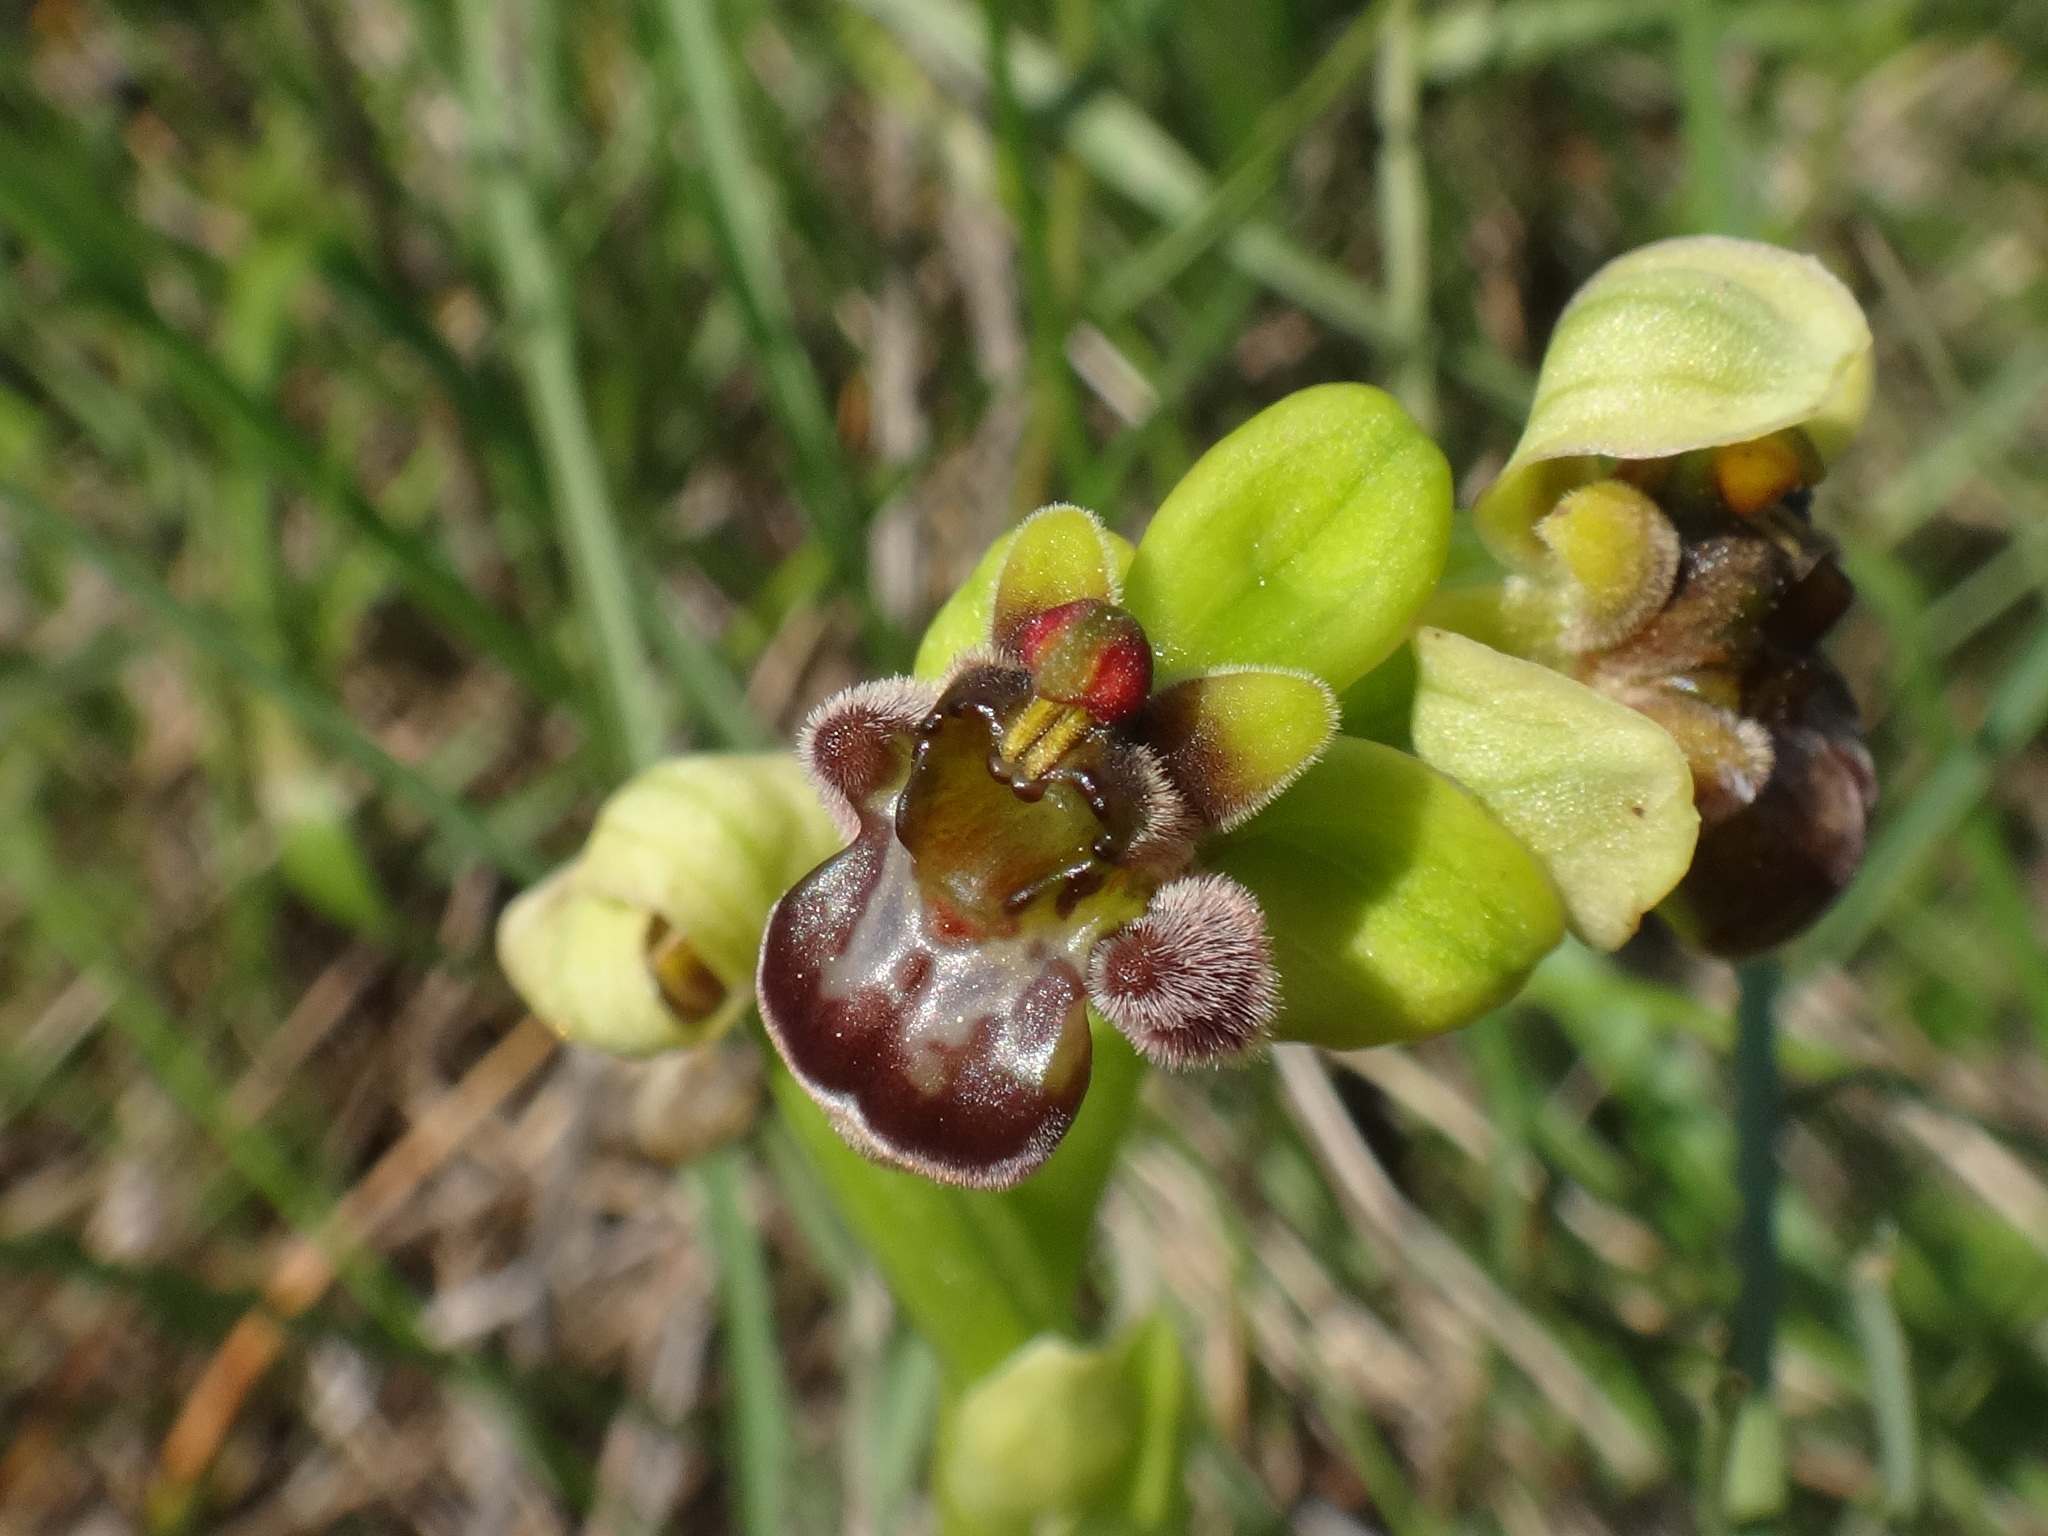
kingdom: Plantae
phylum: Tracheophyta
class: Liliopsida
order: Asparagales
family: Orchidaceae
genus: Ophrys
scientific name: Ophrys bombyliflora
